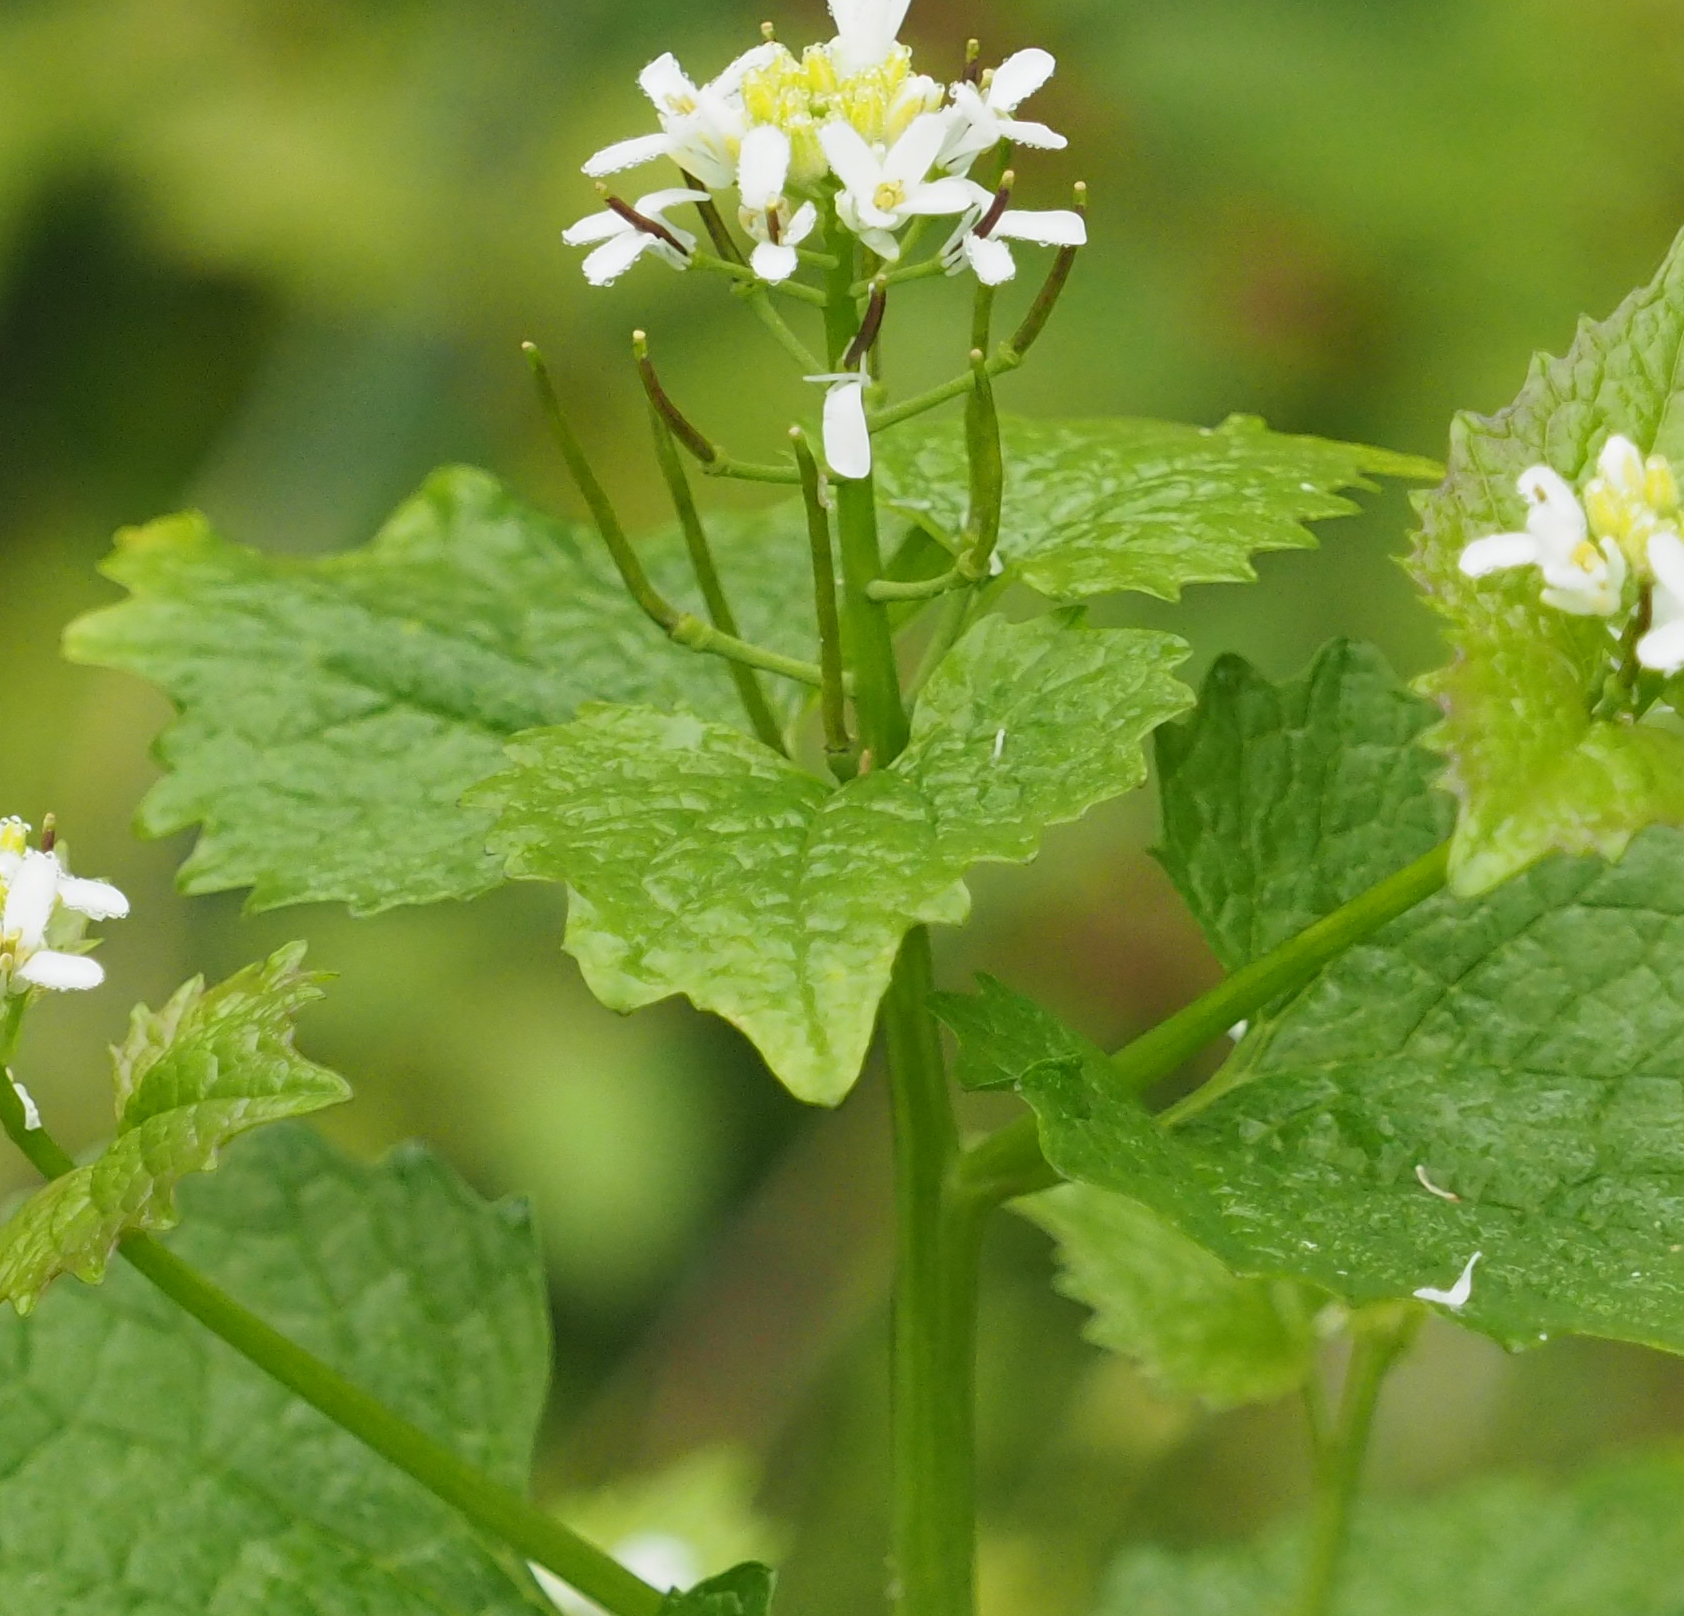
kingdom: Plantae
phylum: Tracheophyta
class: Magnoliopsida
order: Brassicales
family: Brassicaceae
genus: Alliaria
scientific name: Alliaria petiolata
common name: Garlic mustard
